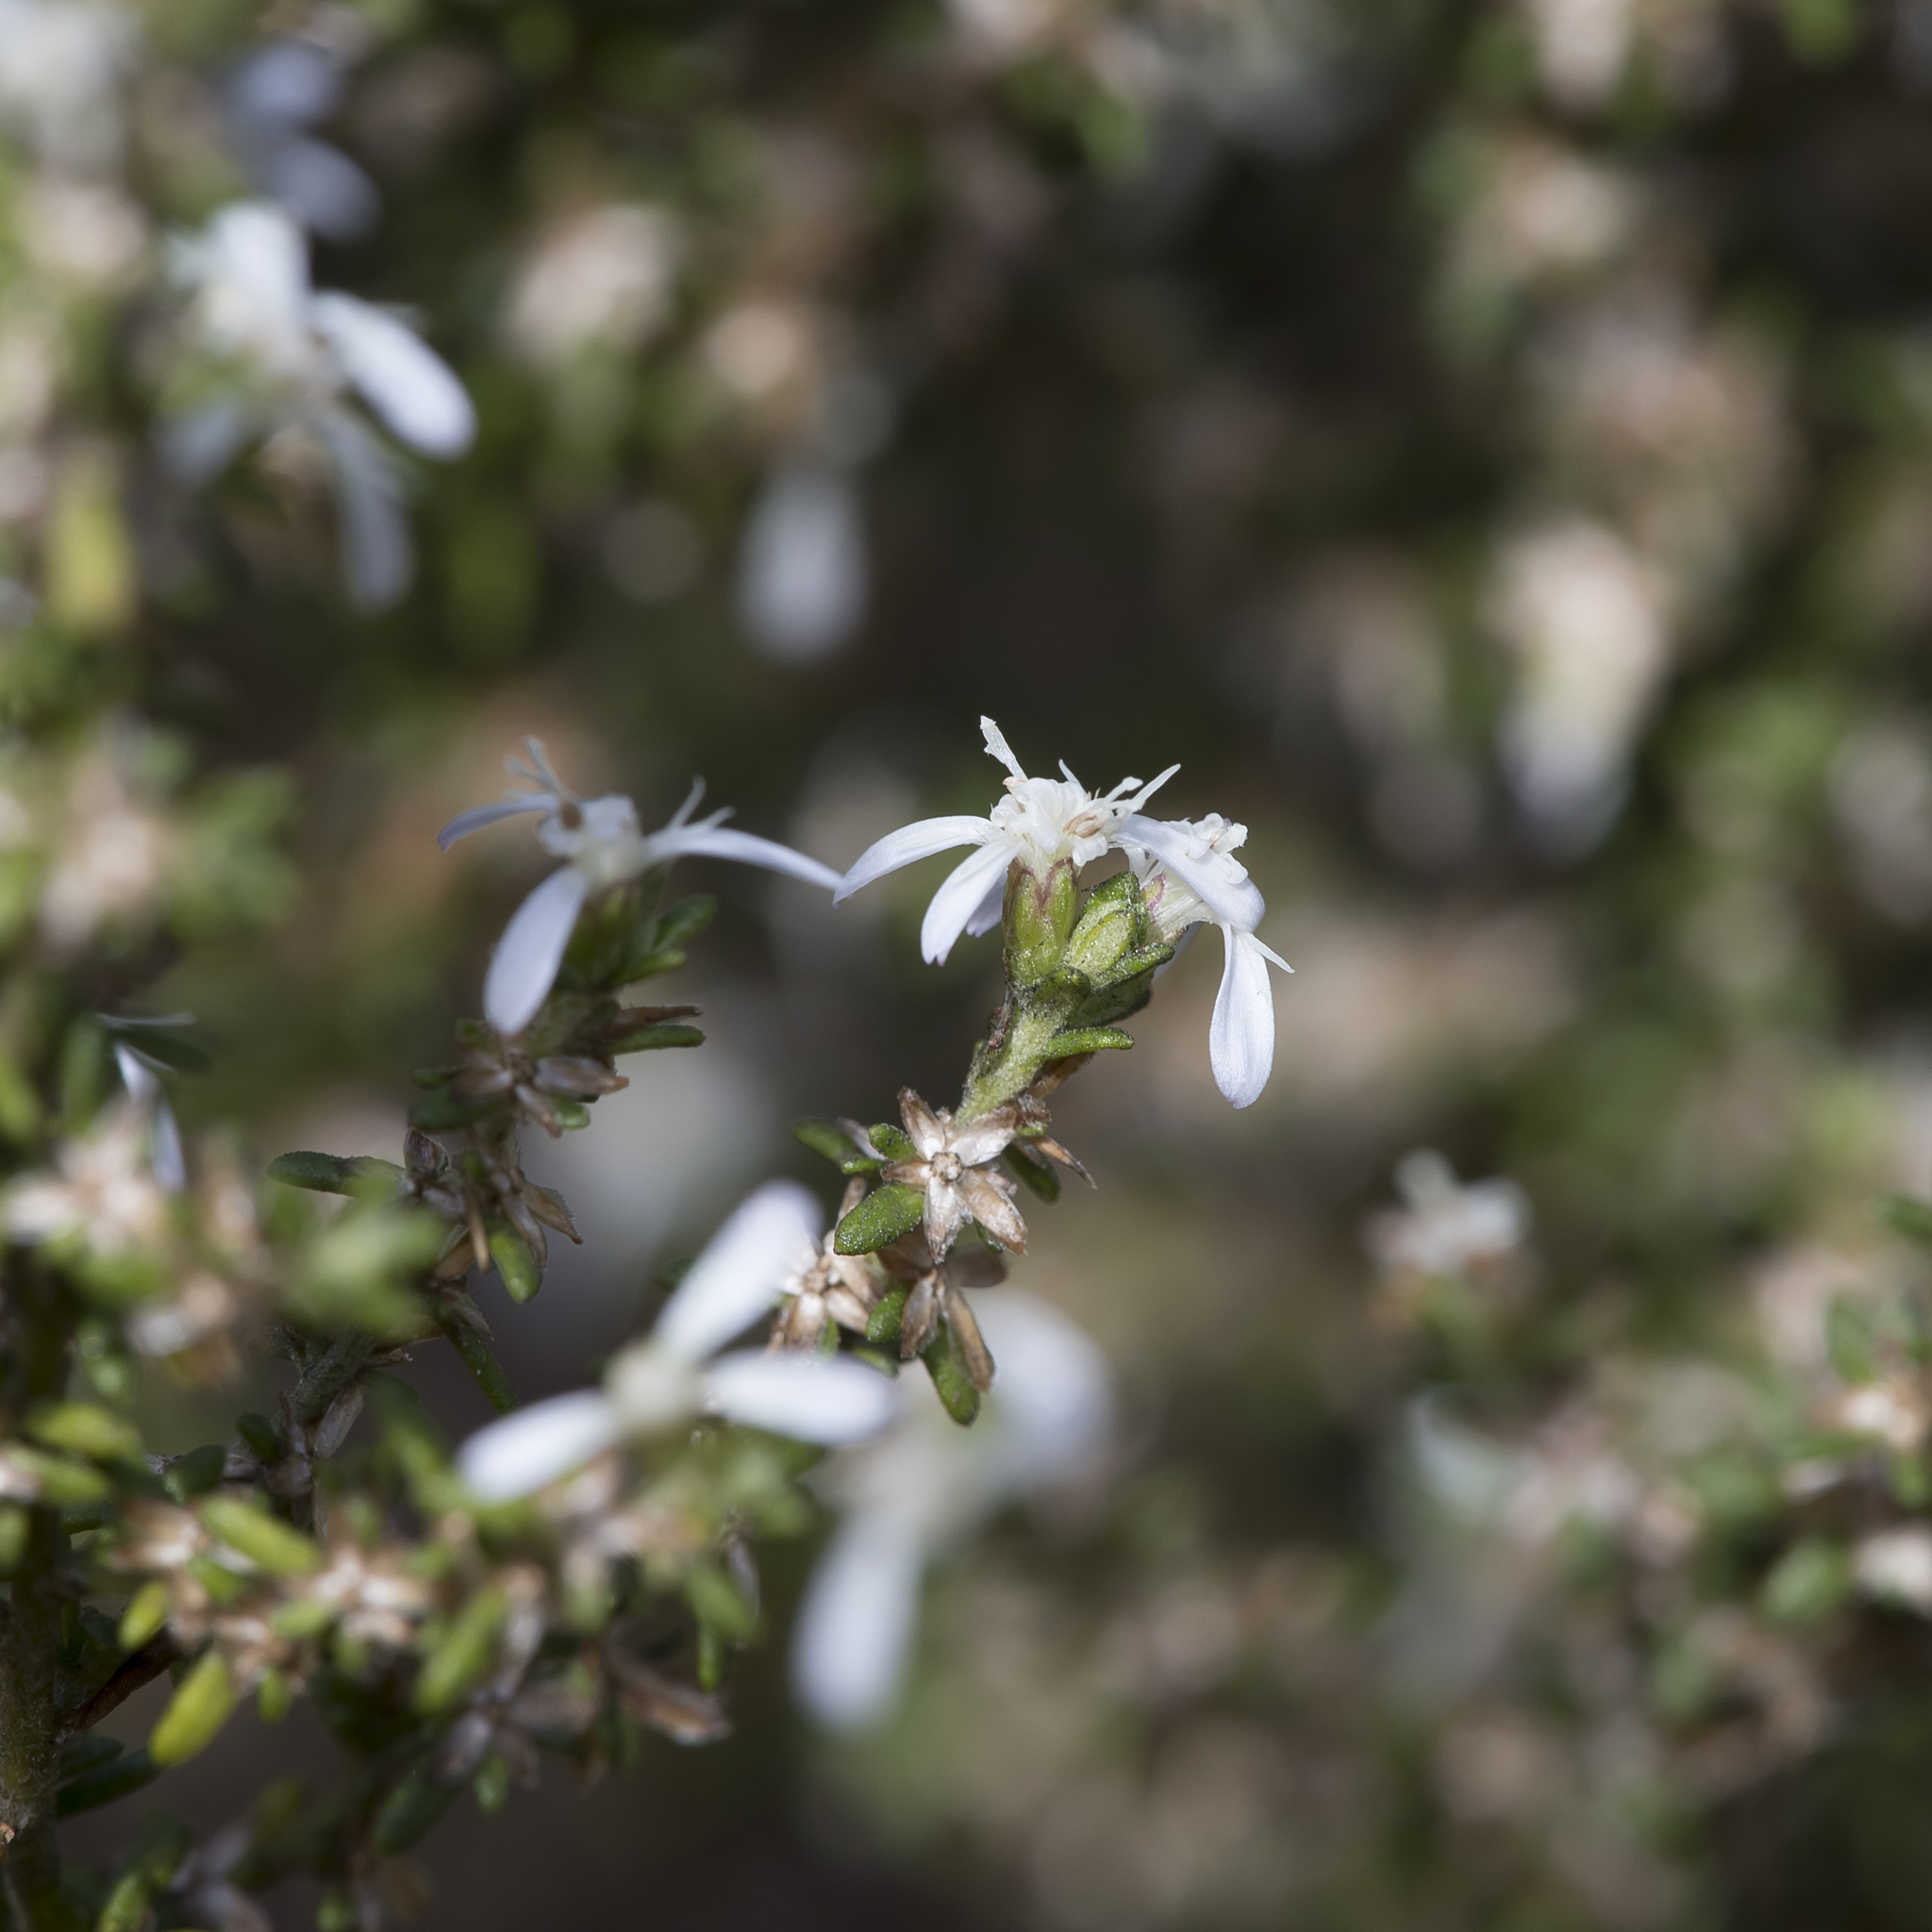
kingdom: Plantae
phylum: Tracheophyta
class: Magnoliopsida
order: Asterales
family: Asteraceae
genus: Olearia
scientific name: Olearia axillaris
